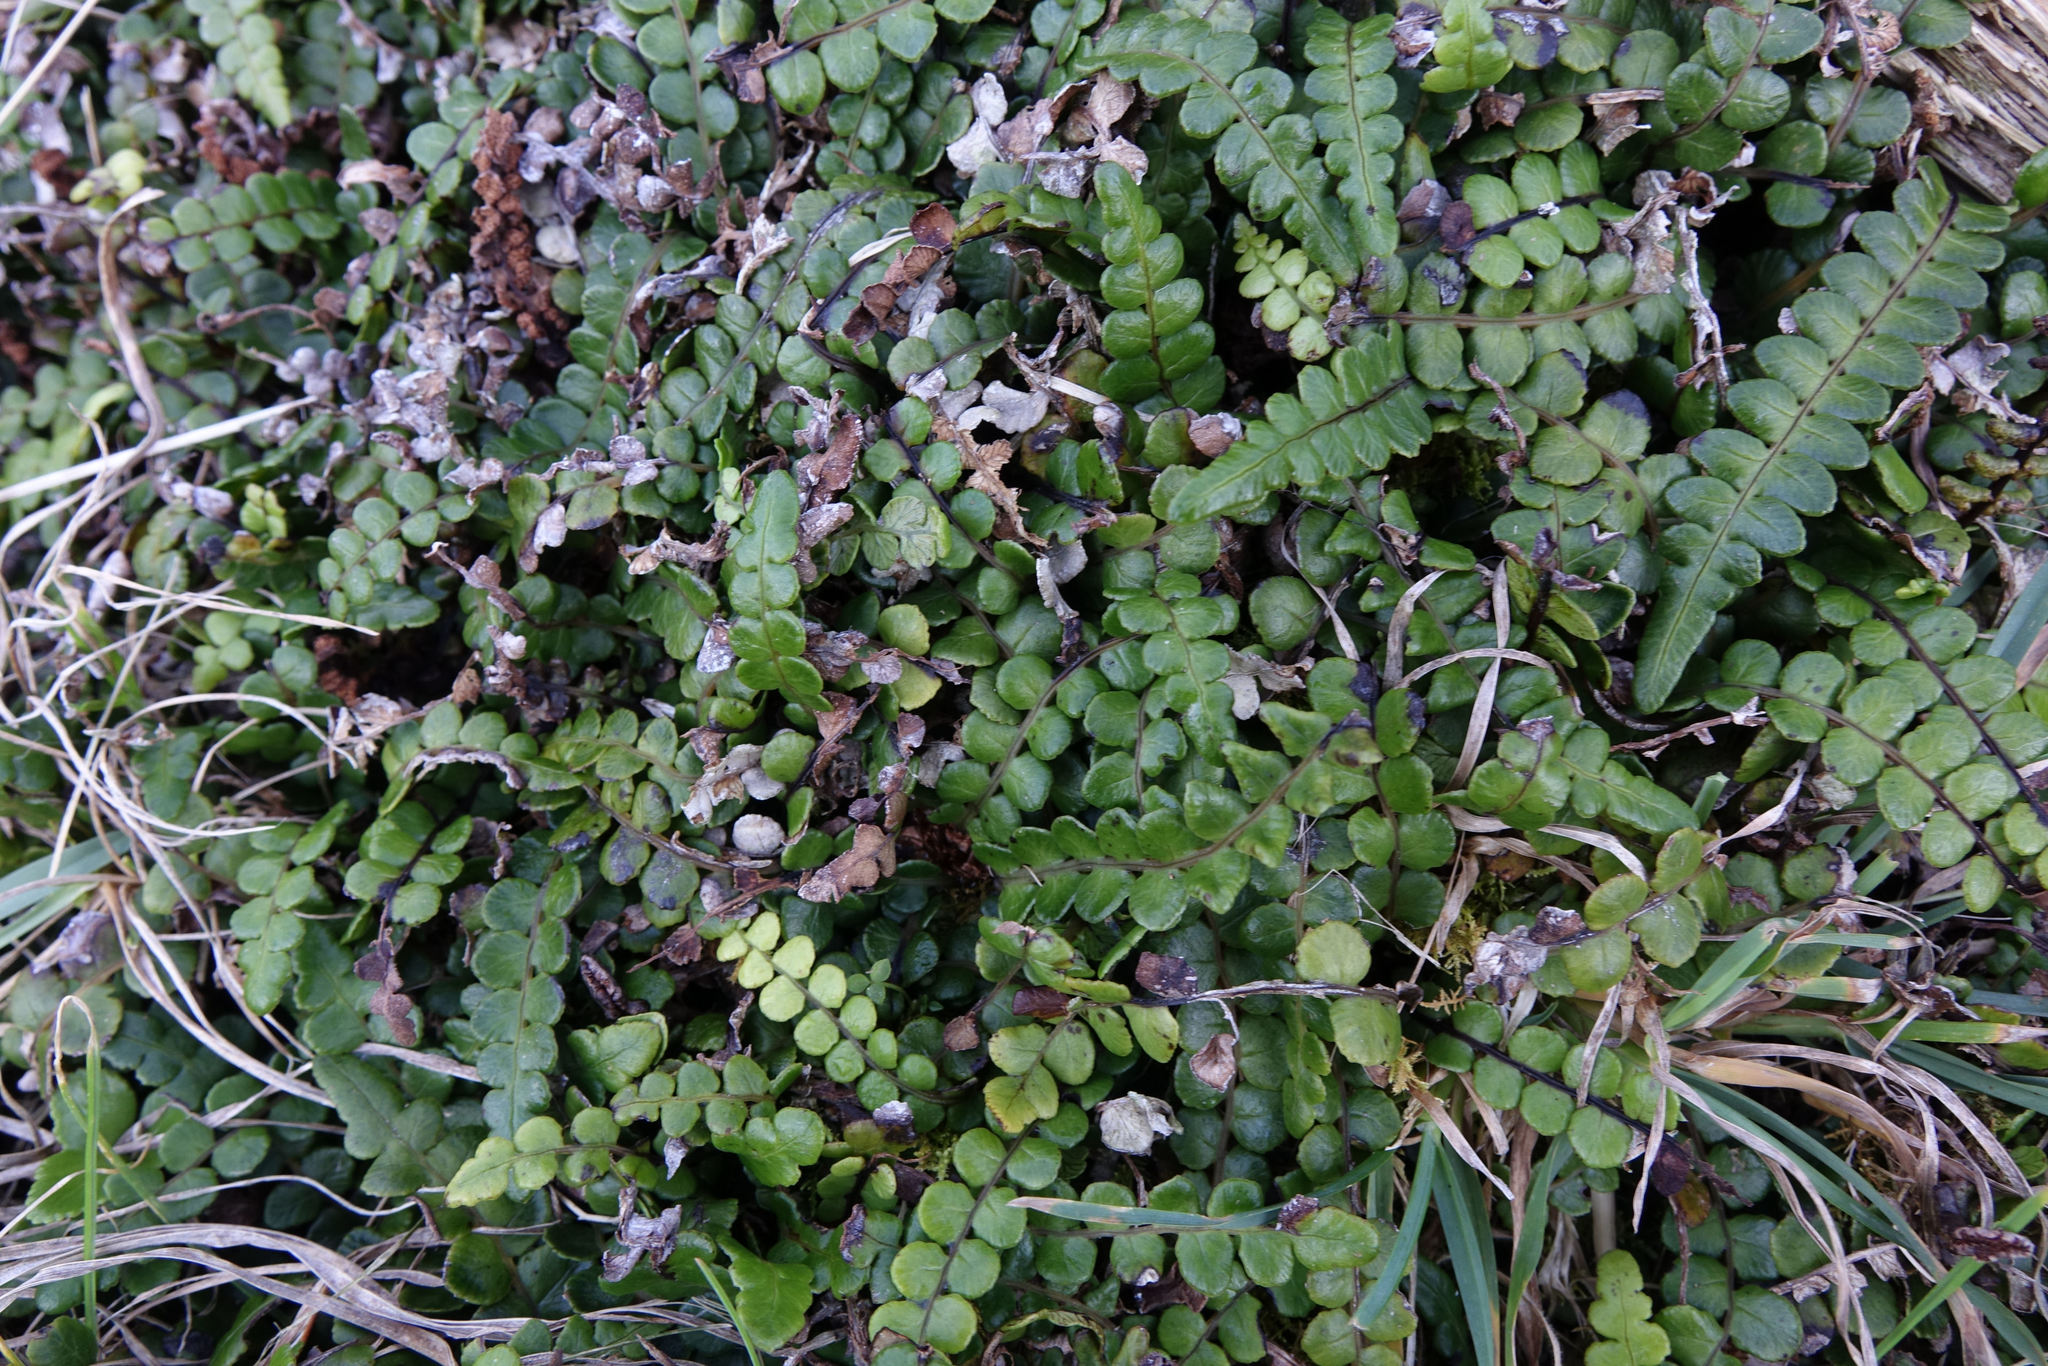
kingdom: Plantae
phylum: Tracheophyta
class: Polypodiopsida
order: Polypodiales
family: Blechnaceae
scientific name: Blechnaceae
